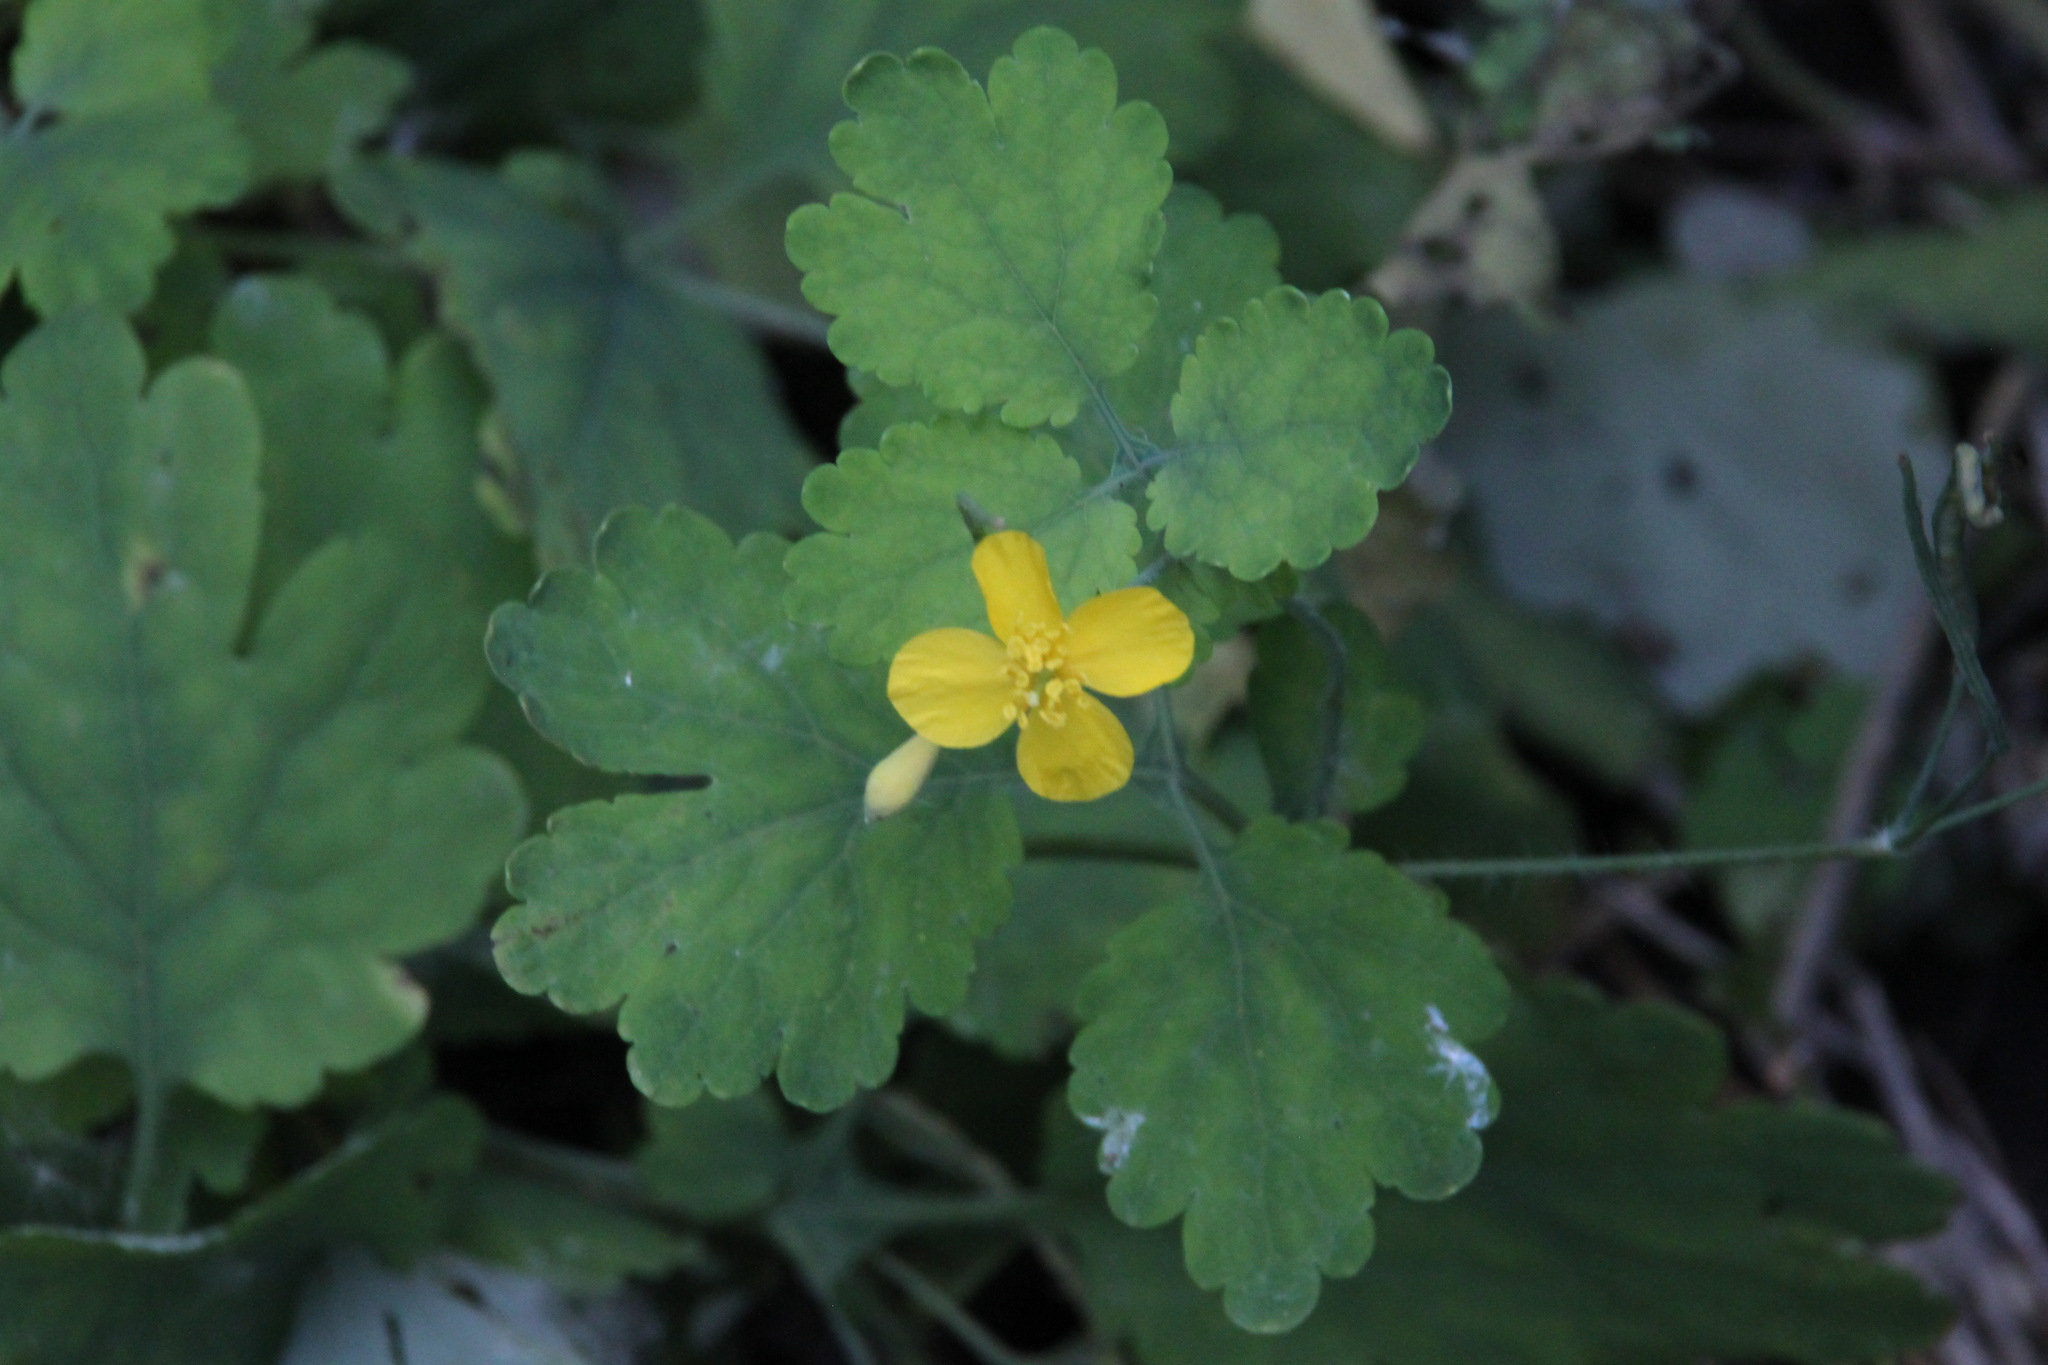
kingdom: Plantae
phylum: Tracheophyta
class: Magnoliopsida
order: Ranunculales
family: Papaveraceae
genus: Chelidonium
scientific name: Chelidonium majus
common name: Greater celandine
